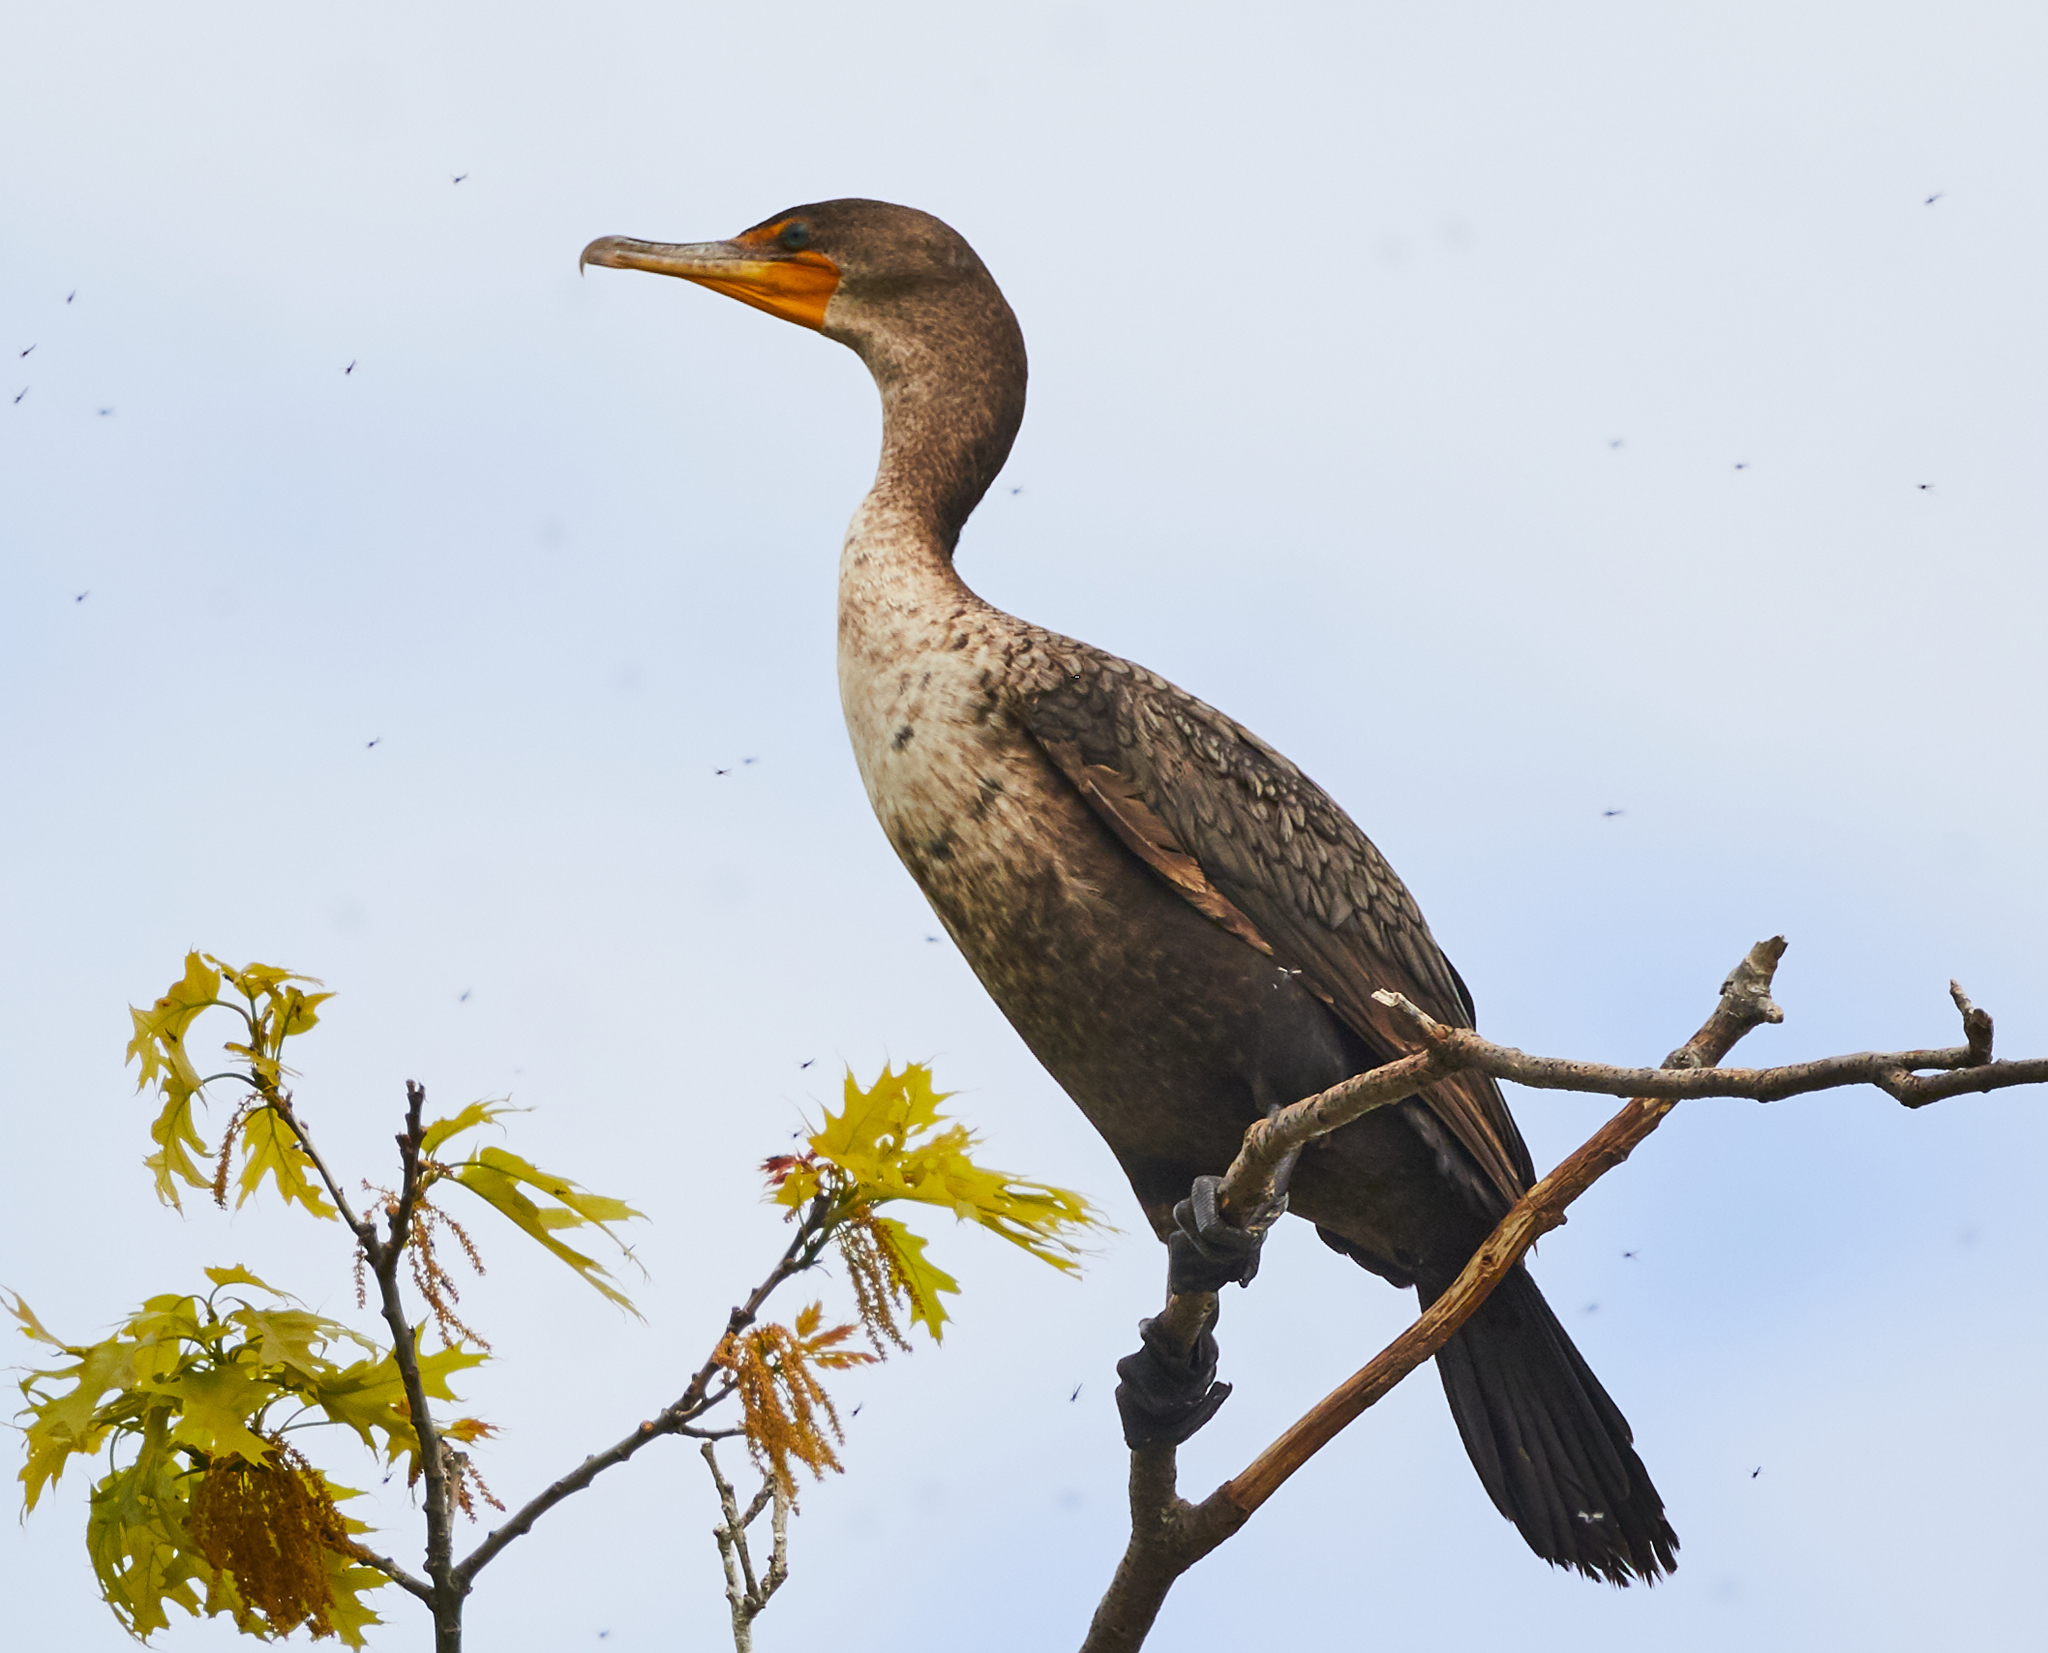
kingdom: Animalia
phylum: Chordata
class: Aves
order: Suliformes
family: Phalacrocoracidae
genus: Phalacrocorax
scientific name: Phalacrocorax auritus
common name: Double-crested cormorant
